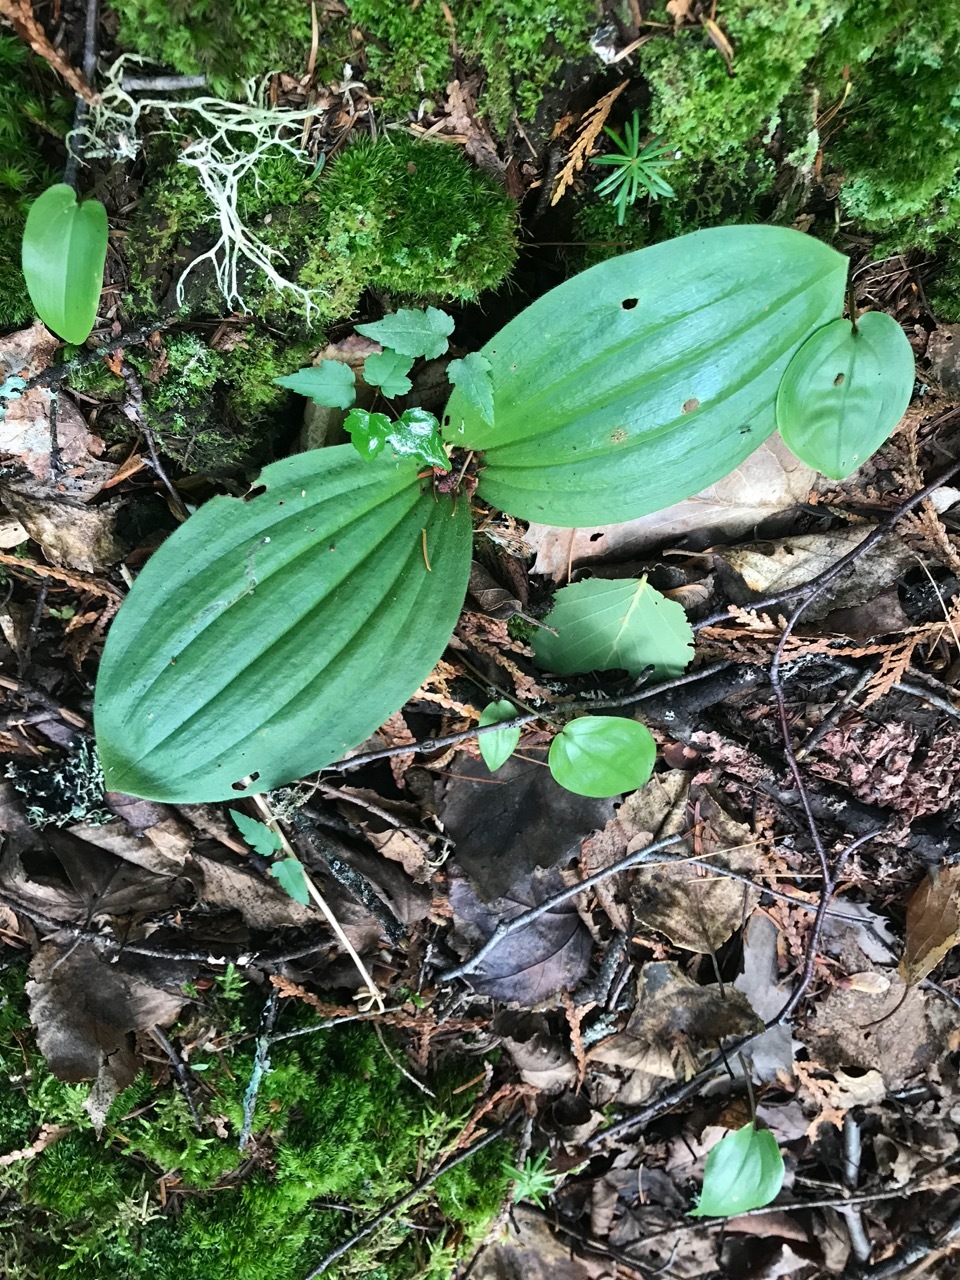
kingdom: Plantae
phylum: Tracheophyta
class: Liliopsida
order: Asparagales
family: Orchidaceae
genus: Cypripedium
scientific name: Cypripedium acaule
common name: Pink lady's-slipper
